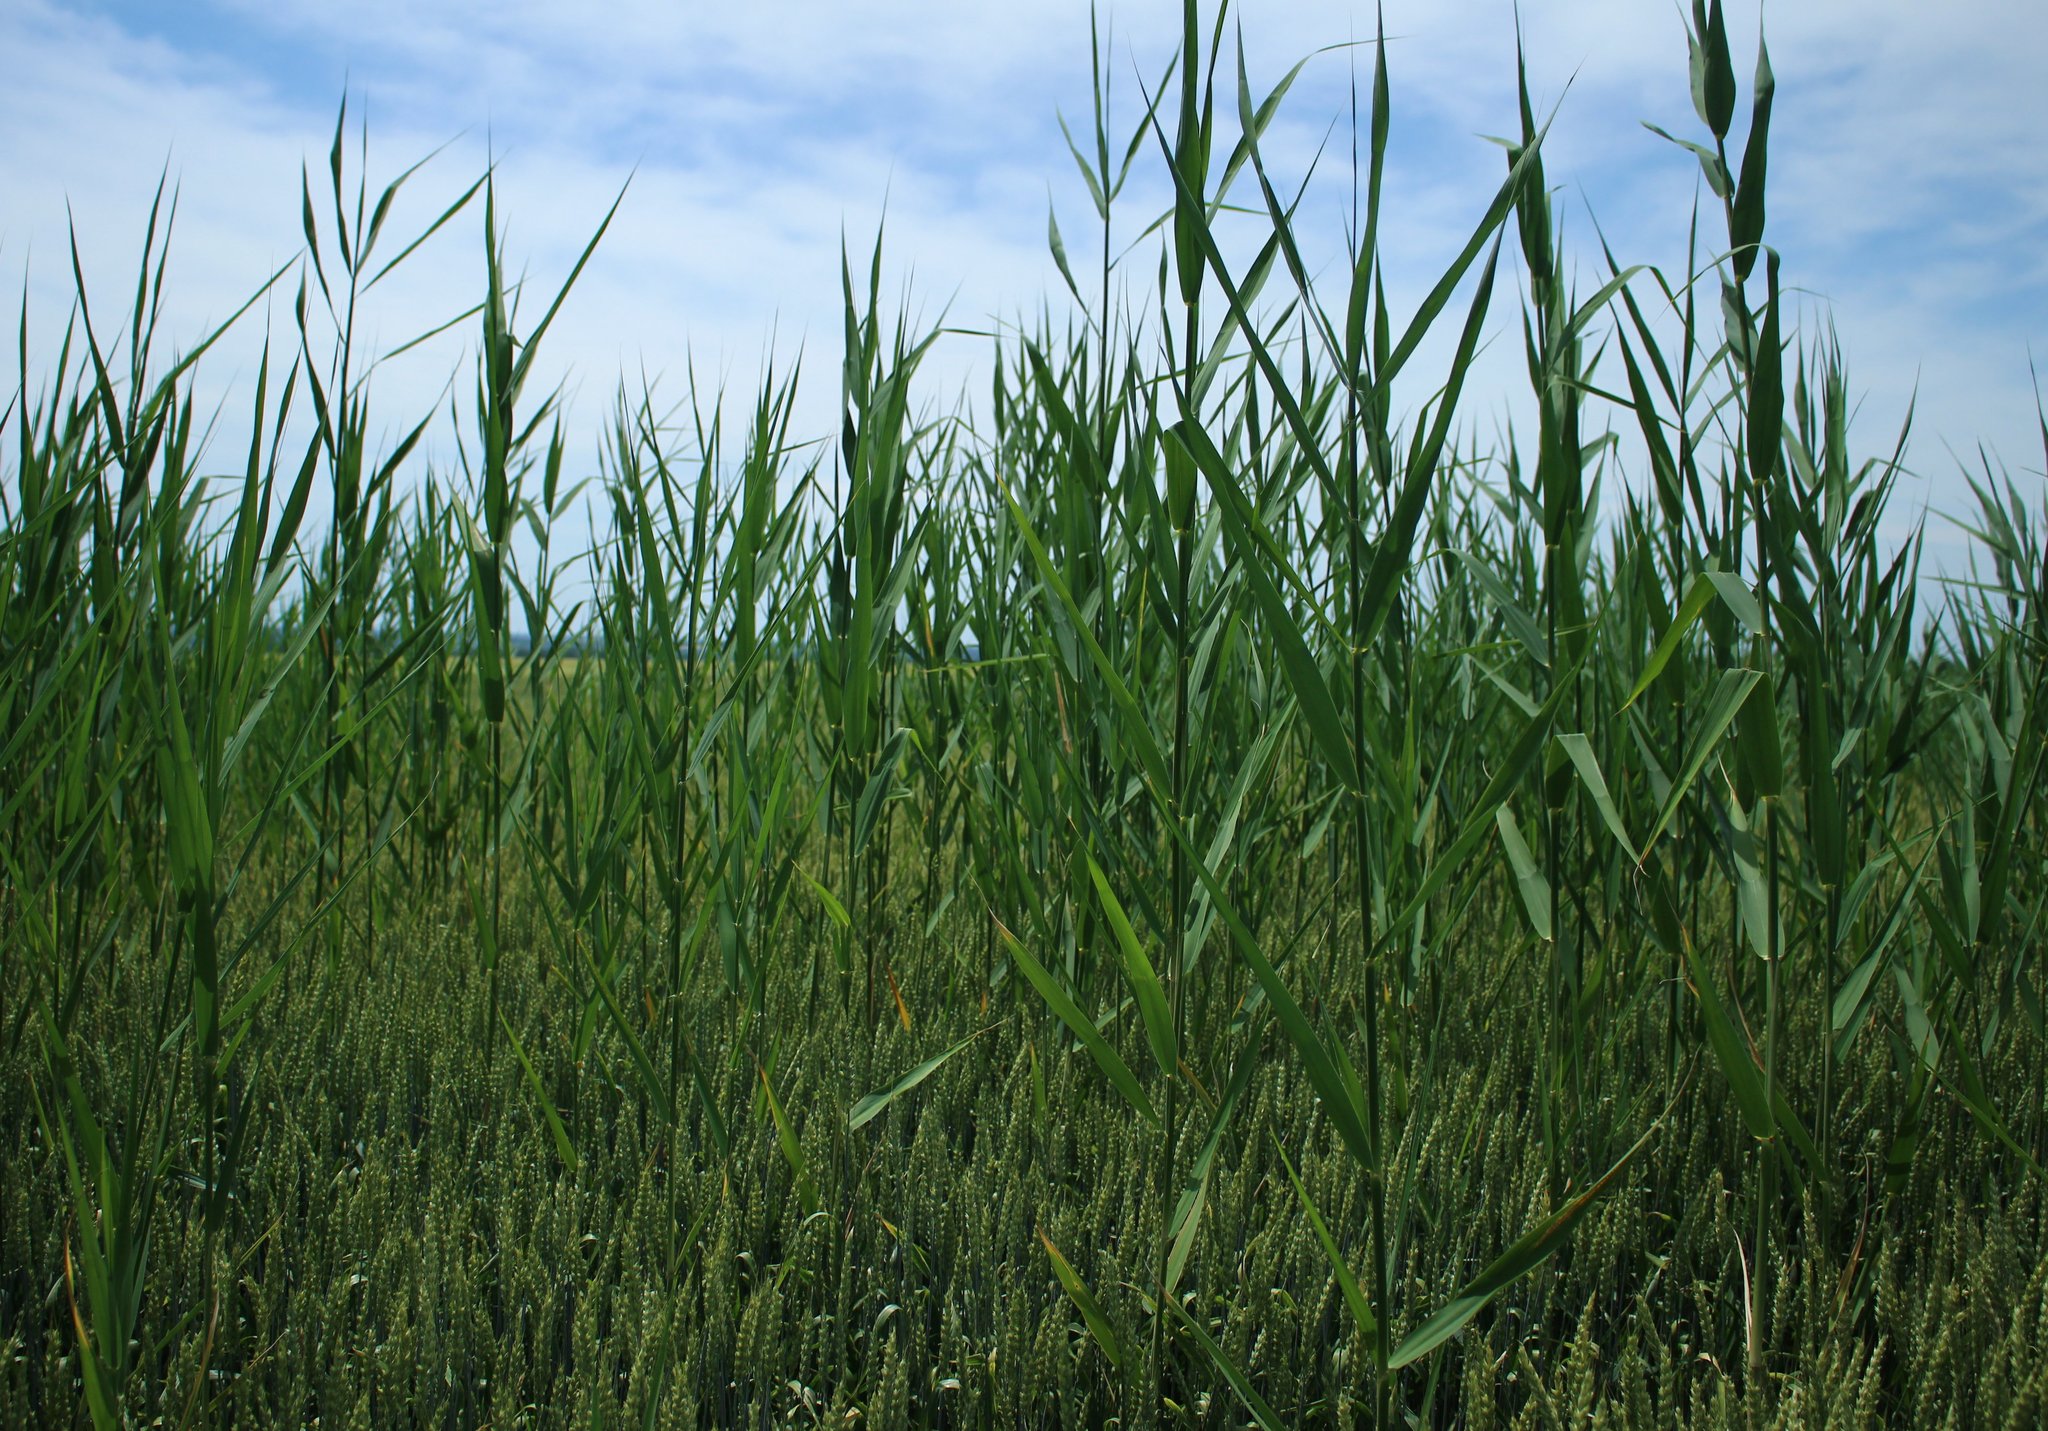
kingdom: Plantae
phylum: Tracheophyta
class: Liliopsida
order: Poales
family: Poaceae
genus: Phragmites
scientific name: Phragmites australis
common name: Common reed
